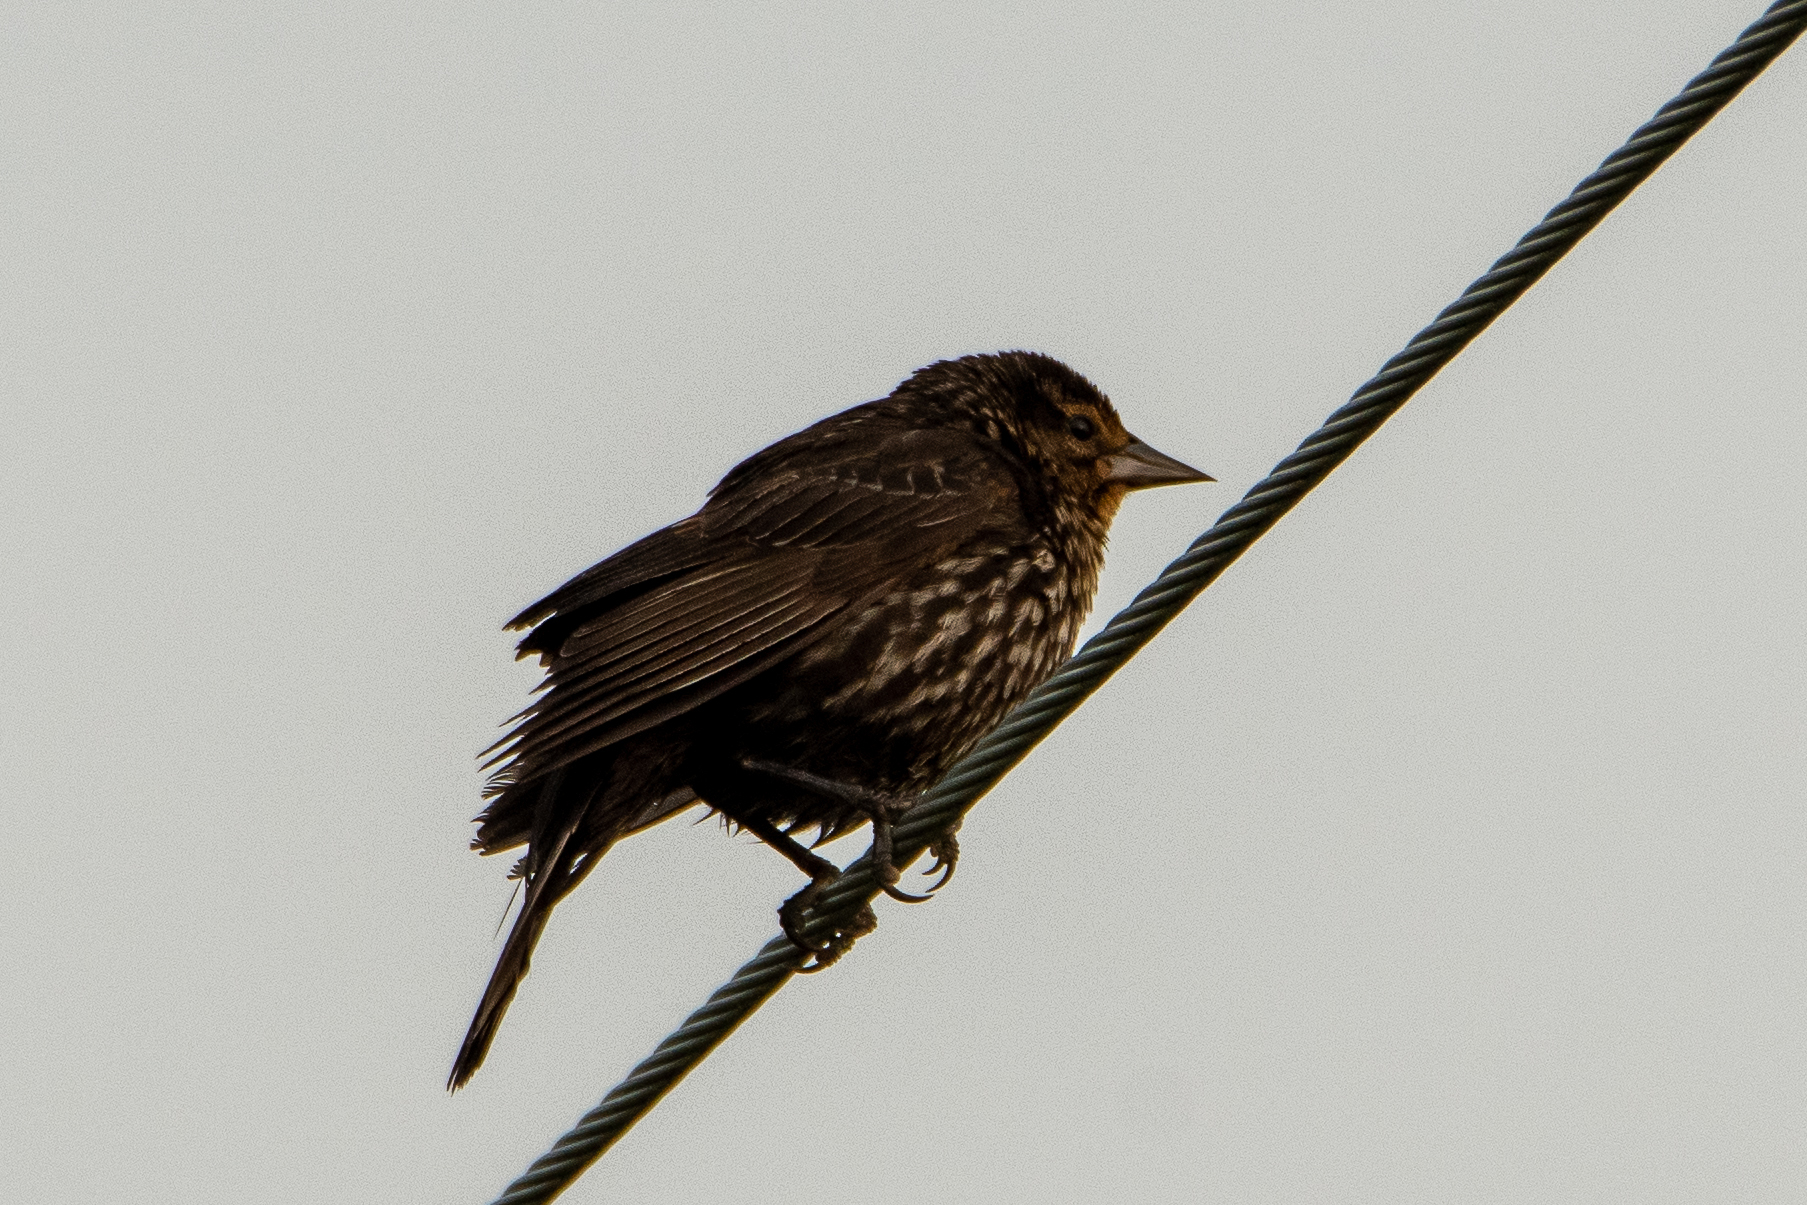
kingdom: Animalia
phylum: Chordata
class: Aves
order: Passeriformes
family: Icteridae
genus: Agelaius
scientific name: Agelaius phoeniceus
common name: Red-winged blackbird
